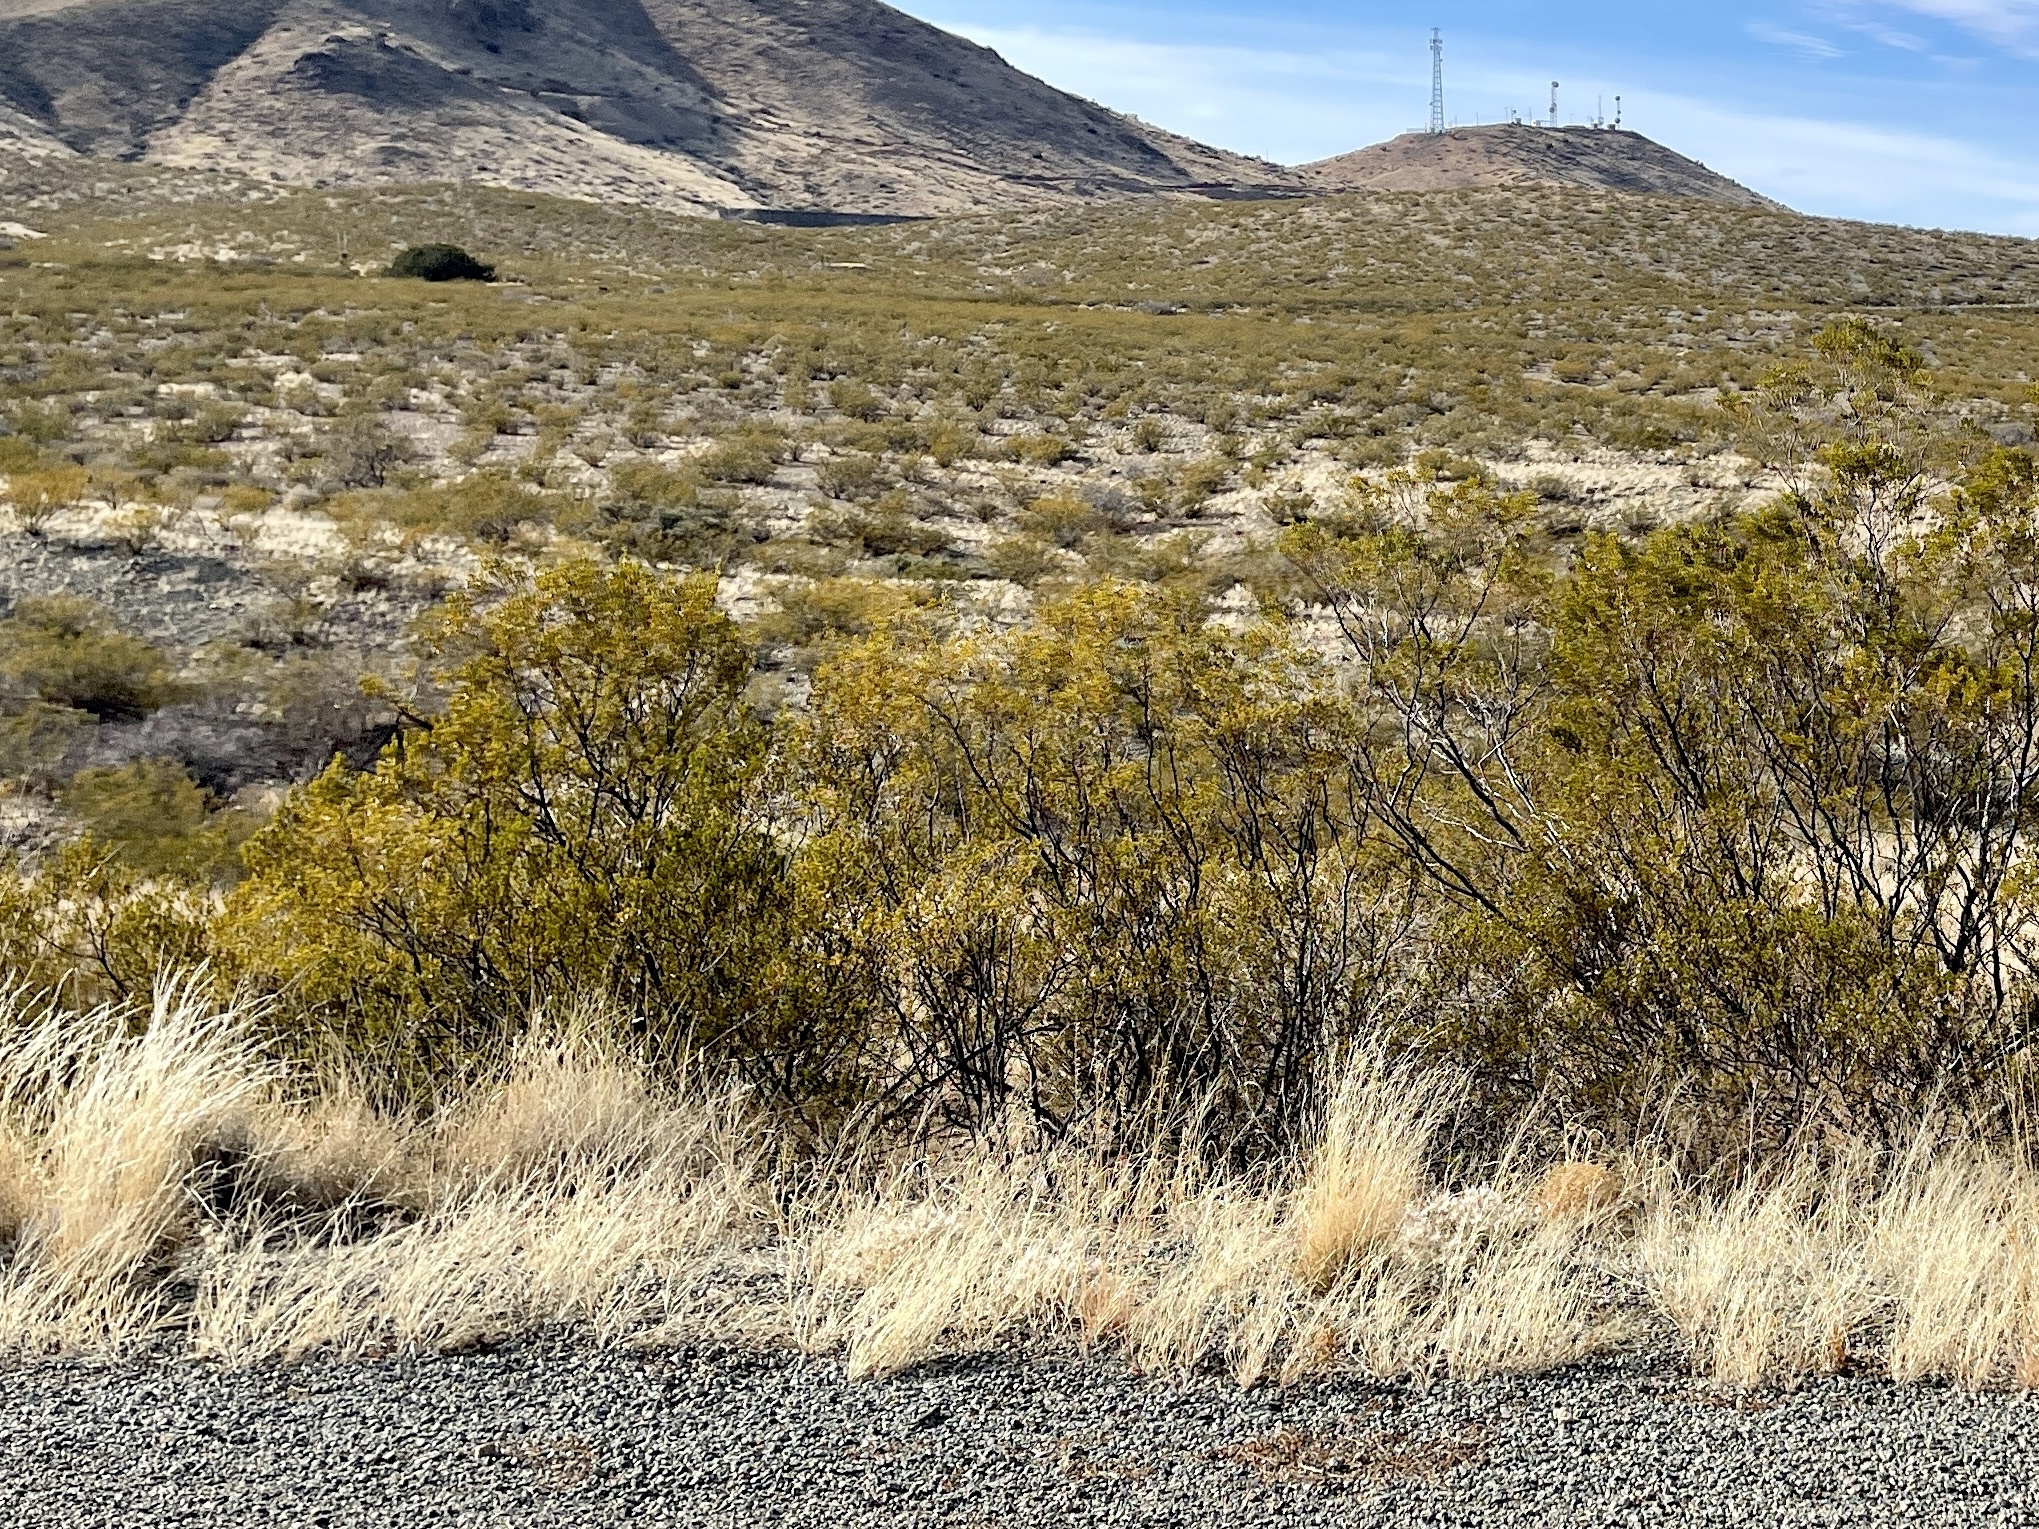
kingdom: Plantae
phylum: Tracheophyta
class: Magnoliopsida
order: Zygophyllales
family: Zygophyllaceae
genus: Larrea
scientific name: Larrea tridentata
